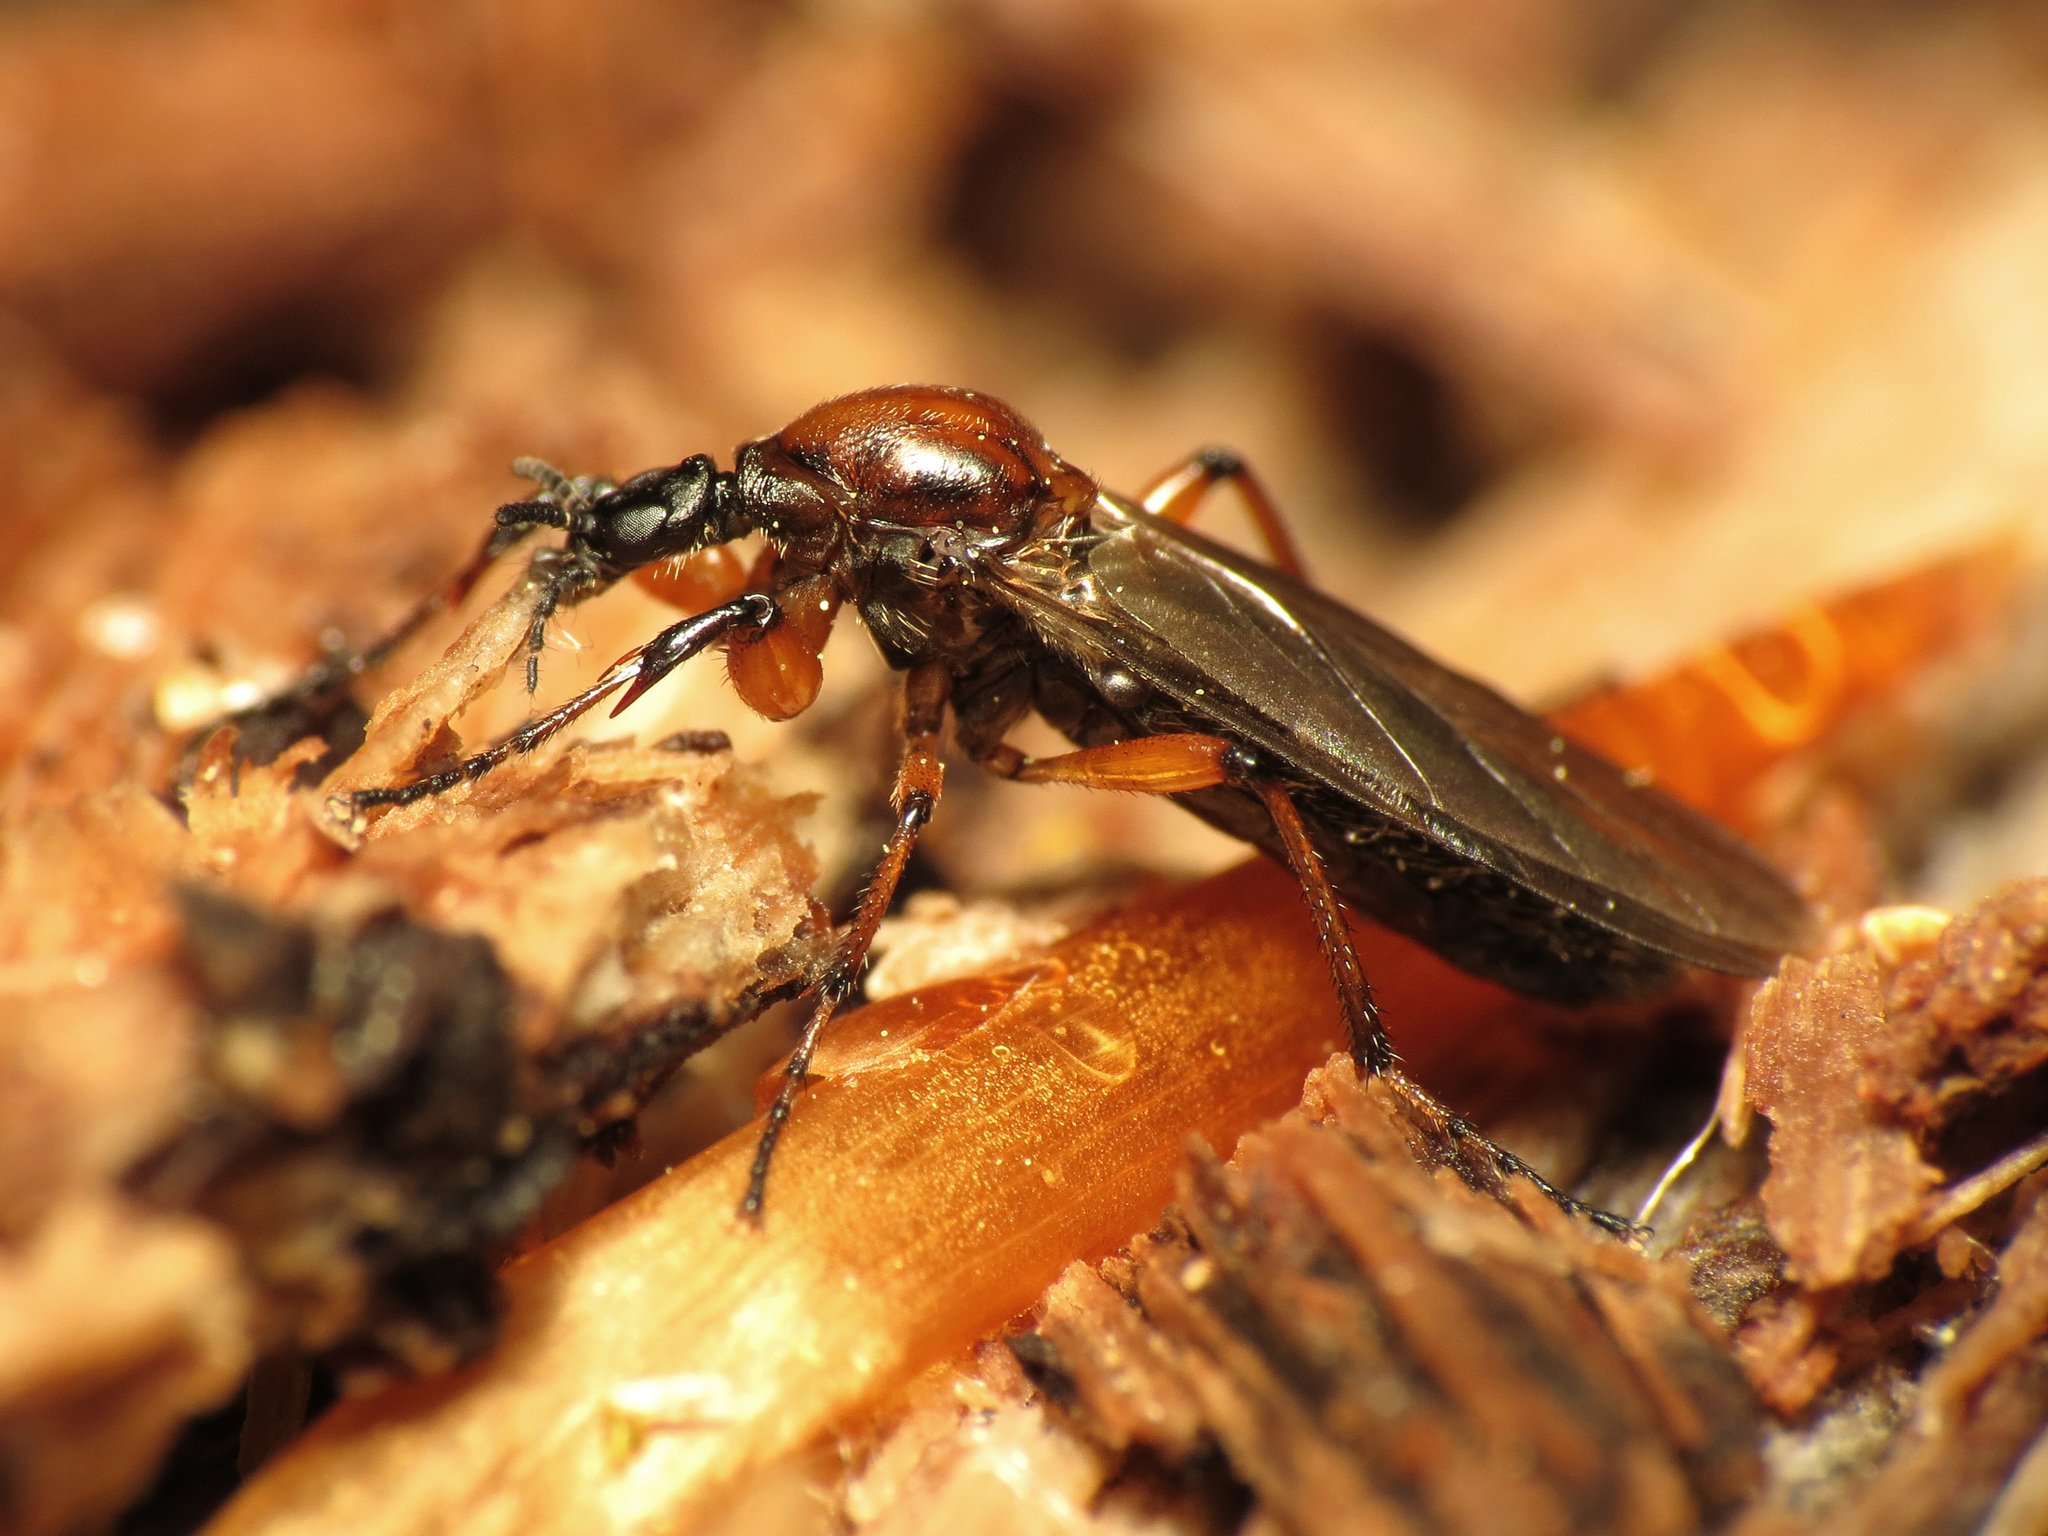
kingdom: Animalia
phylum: Arthropoda
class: Insecta
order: Diptera
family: Bibionidae
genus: Bibio
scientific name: Bibio articulatus
